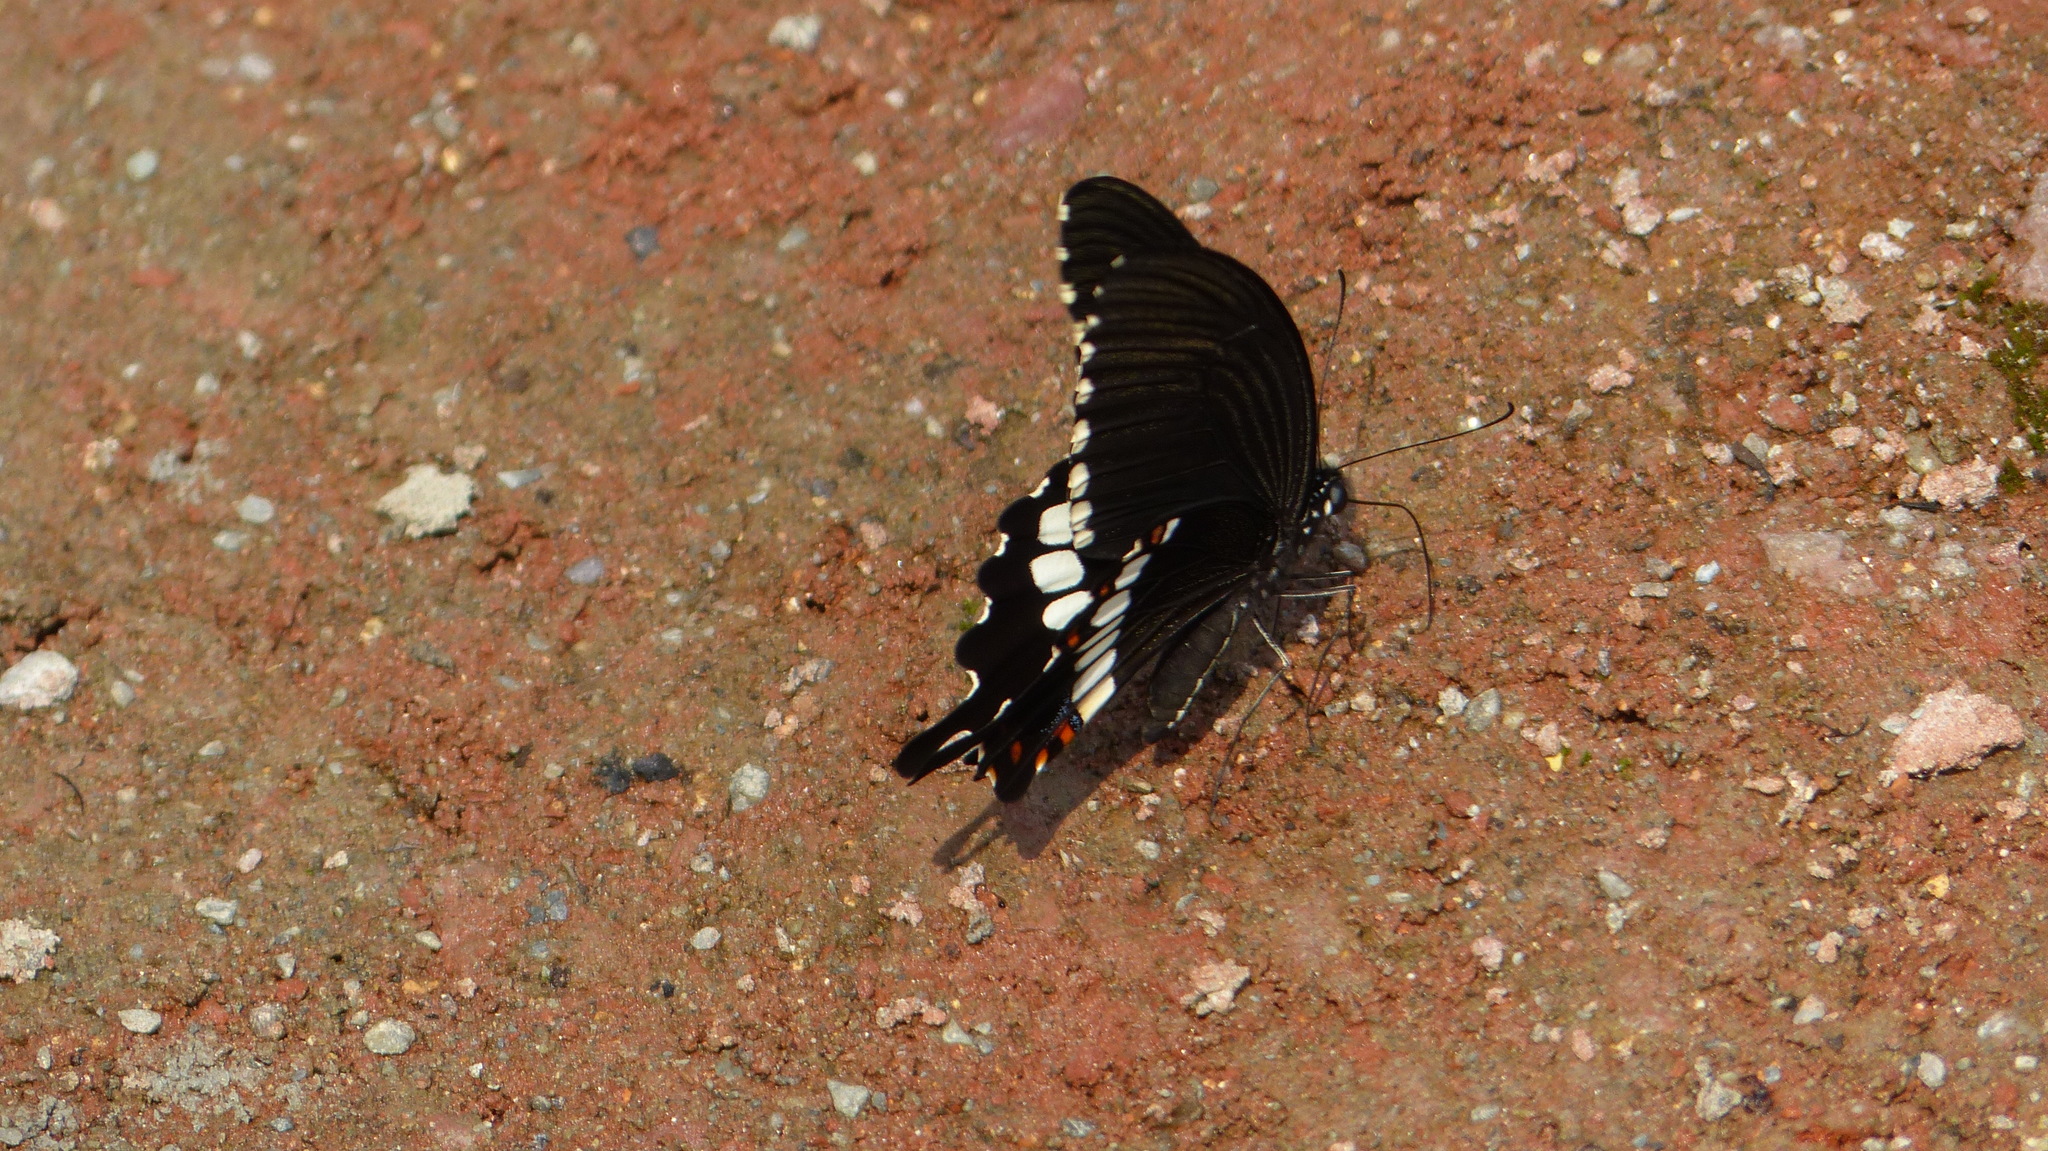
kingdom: Animalia
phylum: Arthropoda
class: Insecta
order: Lepidoptera
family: Papilionidae
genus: Papilio
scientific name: Papilio polytes
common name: Common mormon
